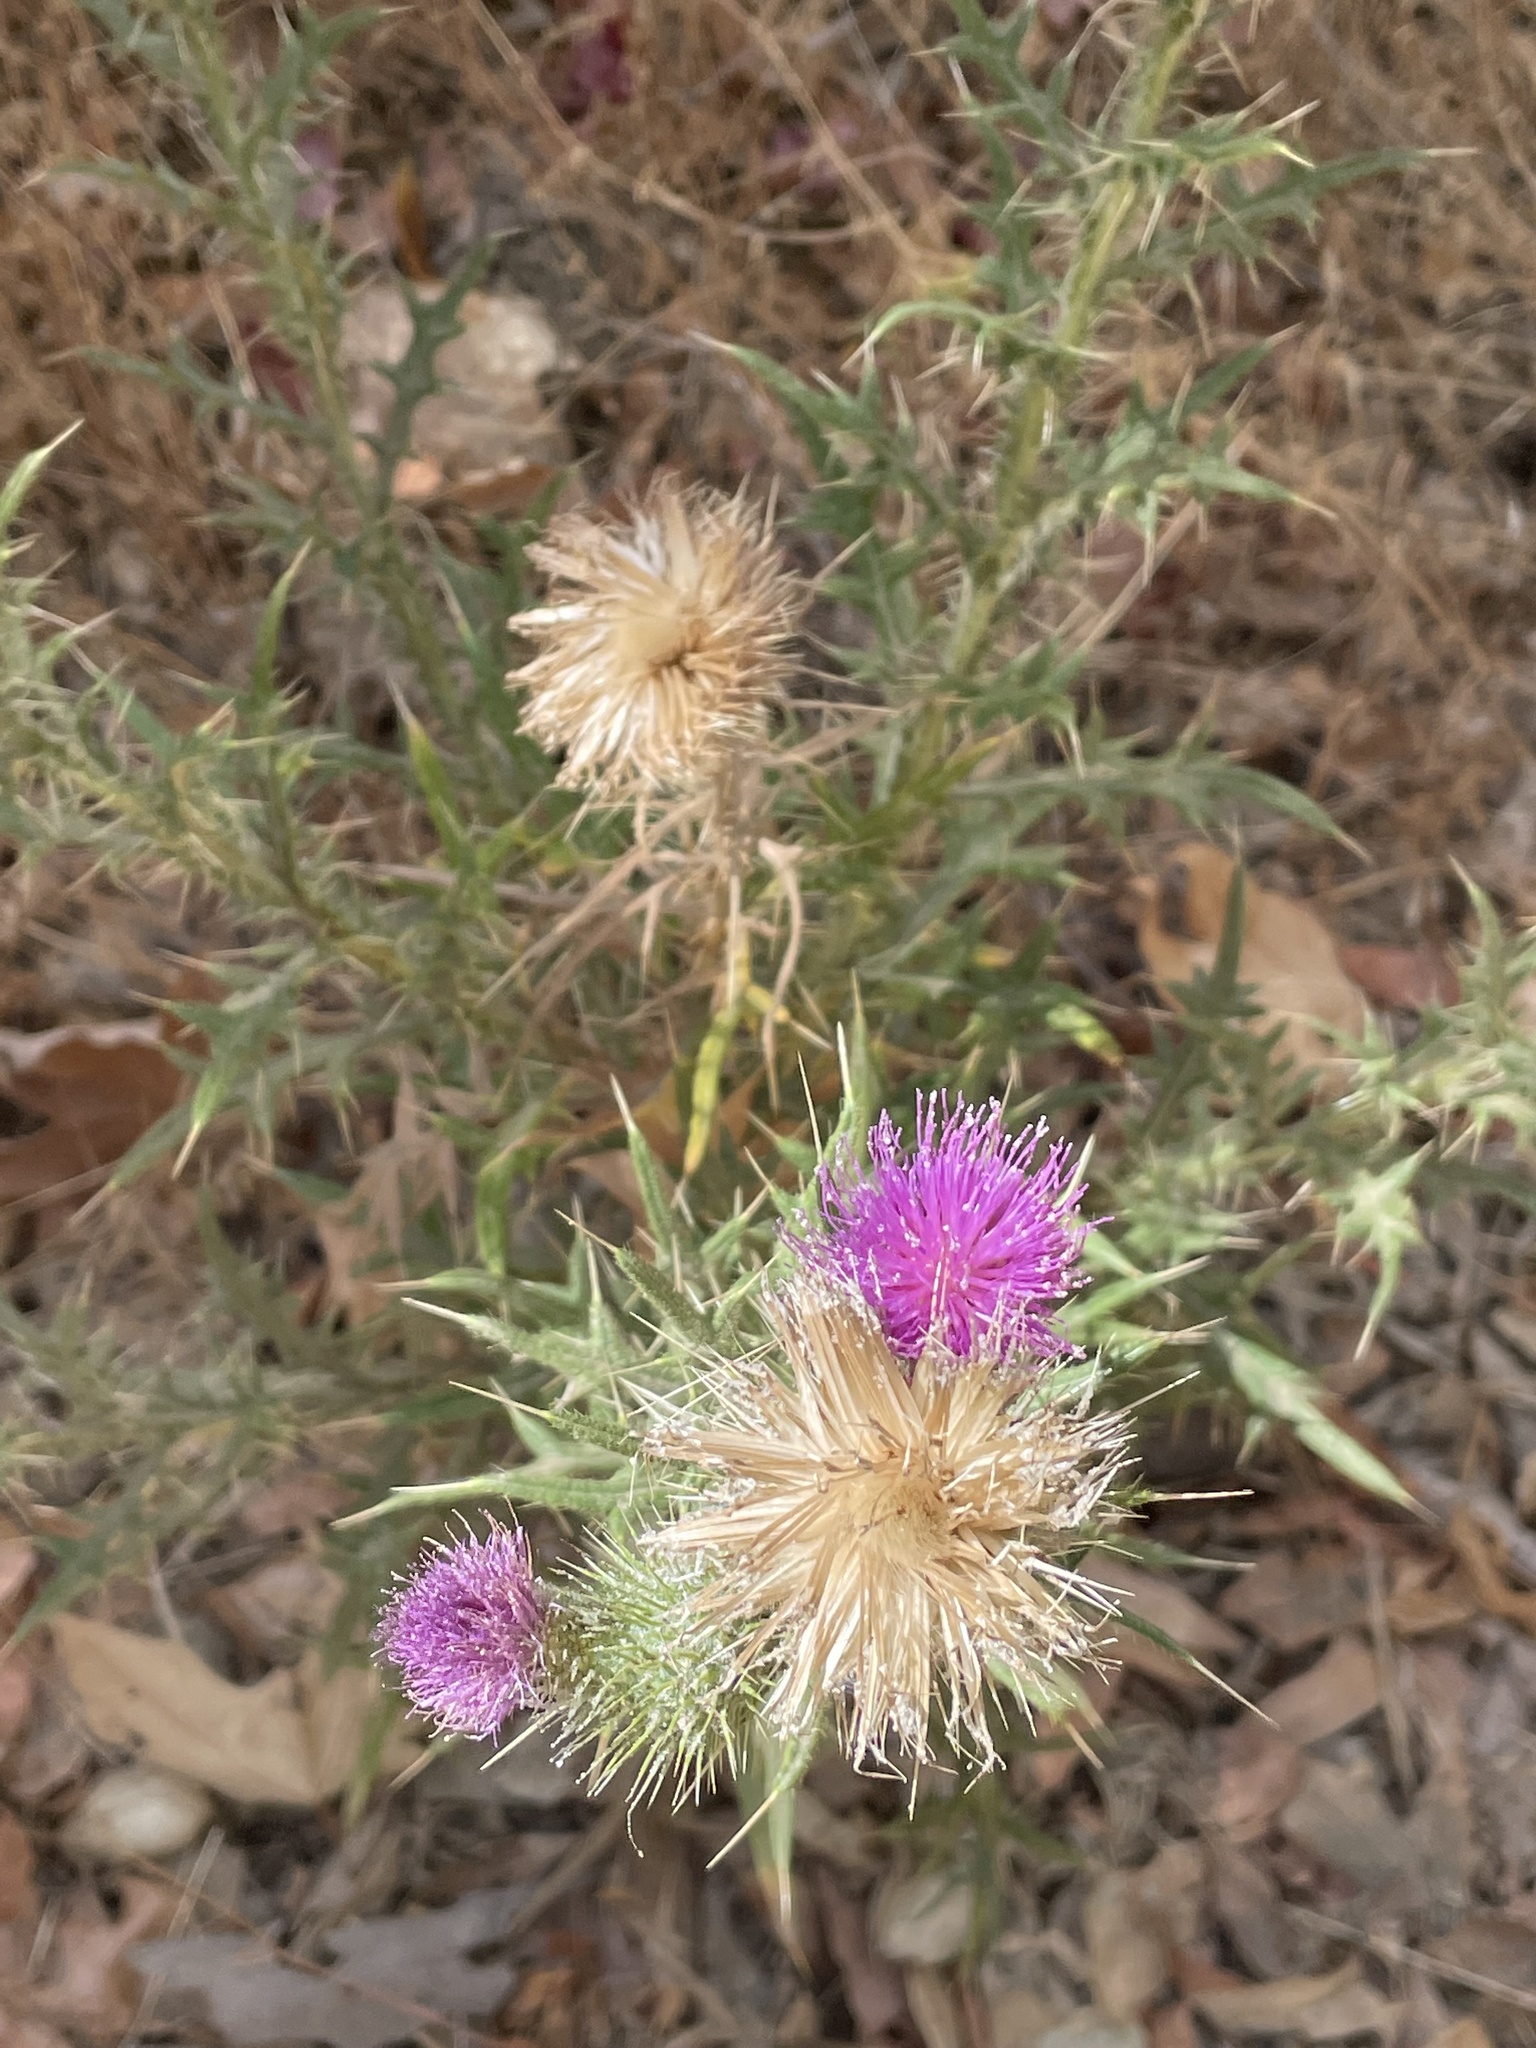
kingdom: Plantae
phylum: Tracheophyta
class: Magnoliopsida
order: Asterales
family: Asteraceae
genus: Cirsium
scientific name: Cirsium vulgare
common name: Bull thistle
